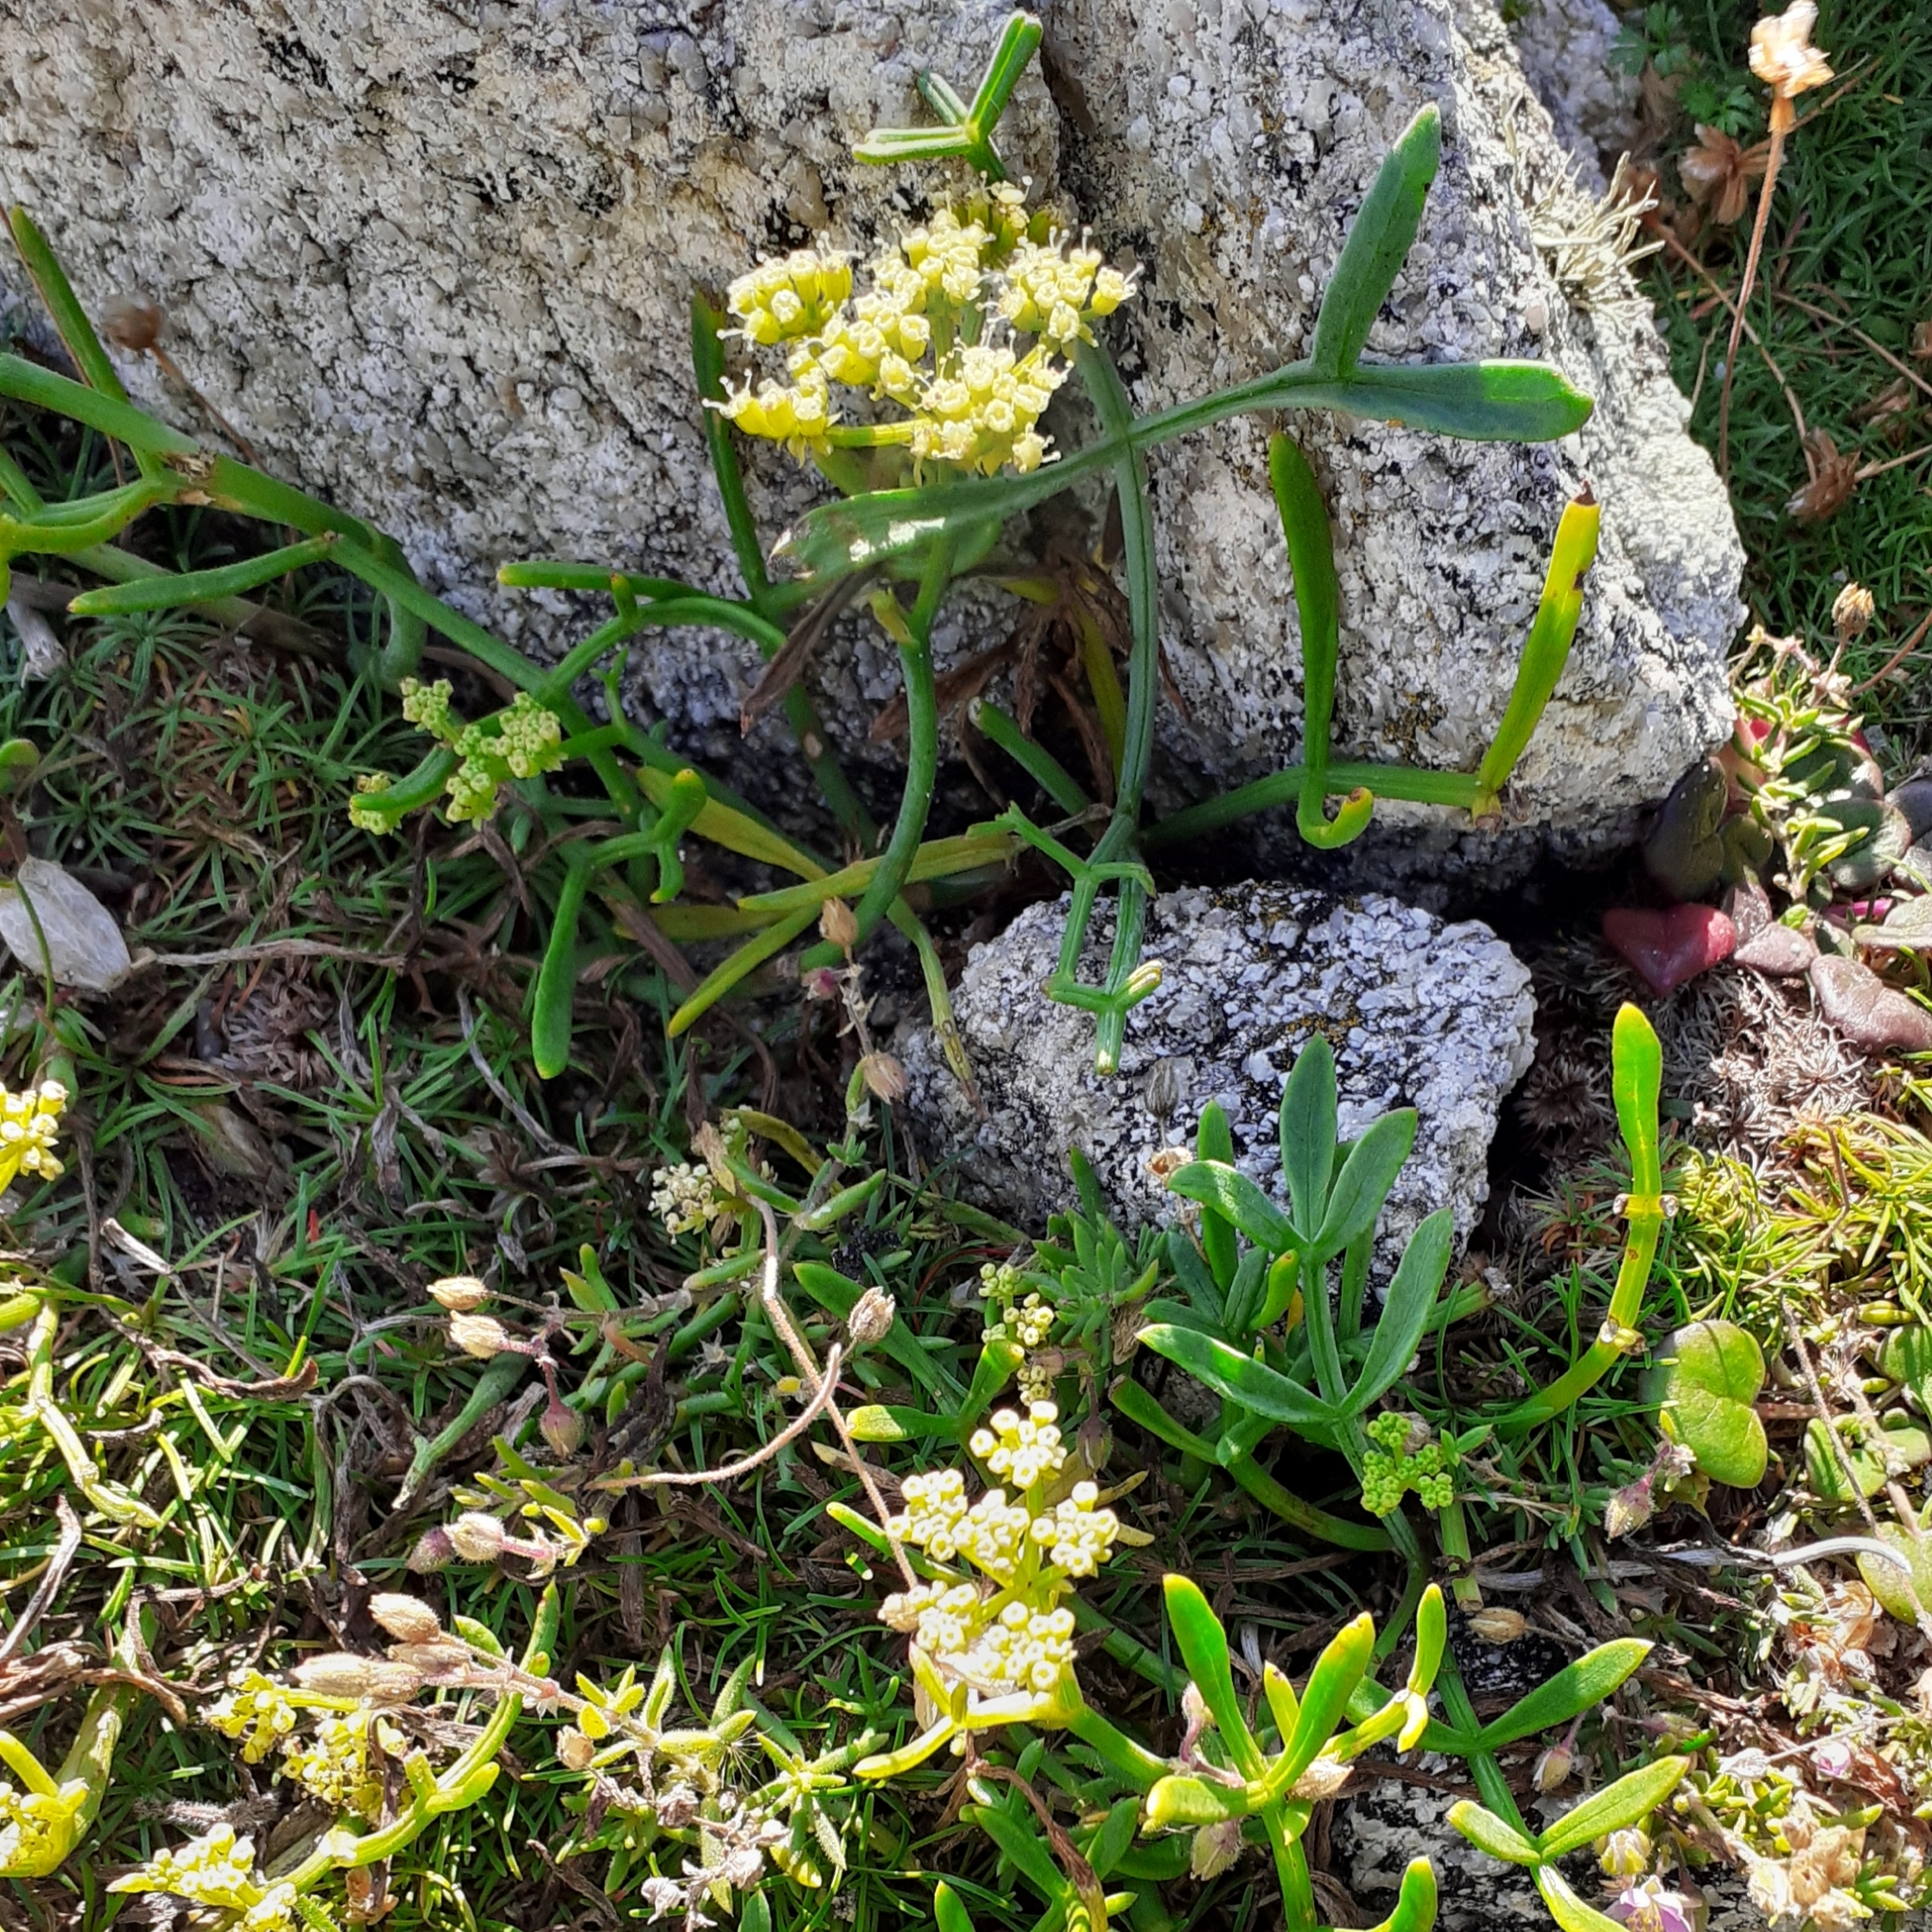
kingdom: Plantae
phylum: Tracheophyta
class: Magnoliopsida
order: Apiales
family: Apiaceae
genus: Crithmum
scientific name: Crithmum maritimum
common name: Rock samphire
